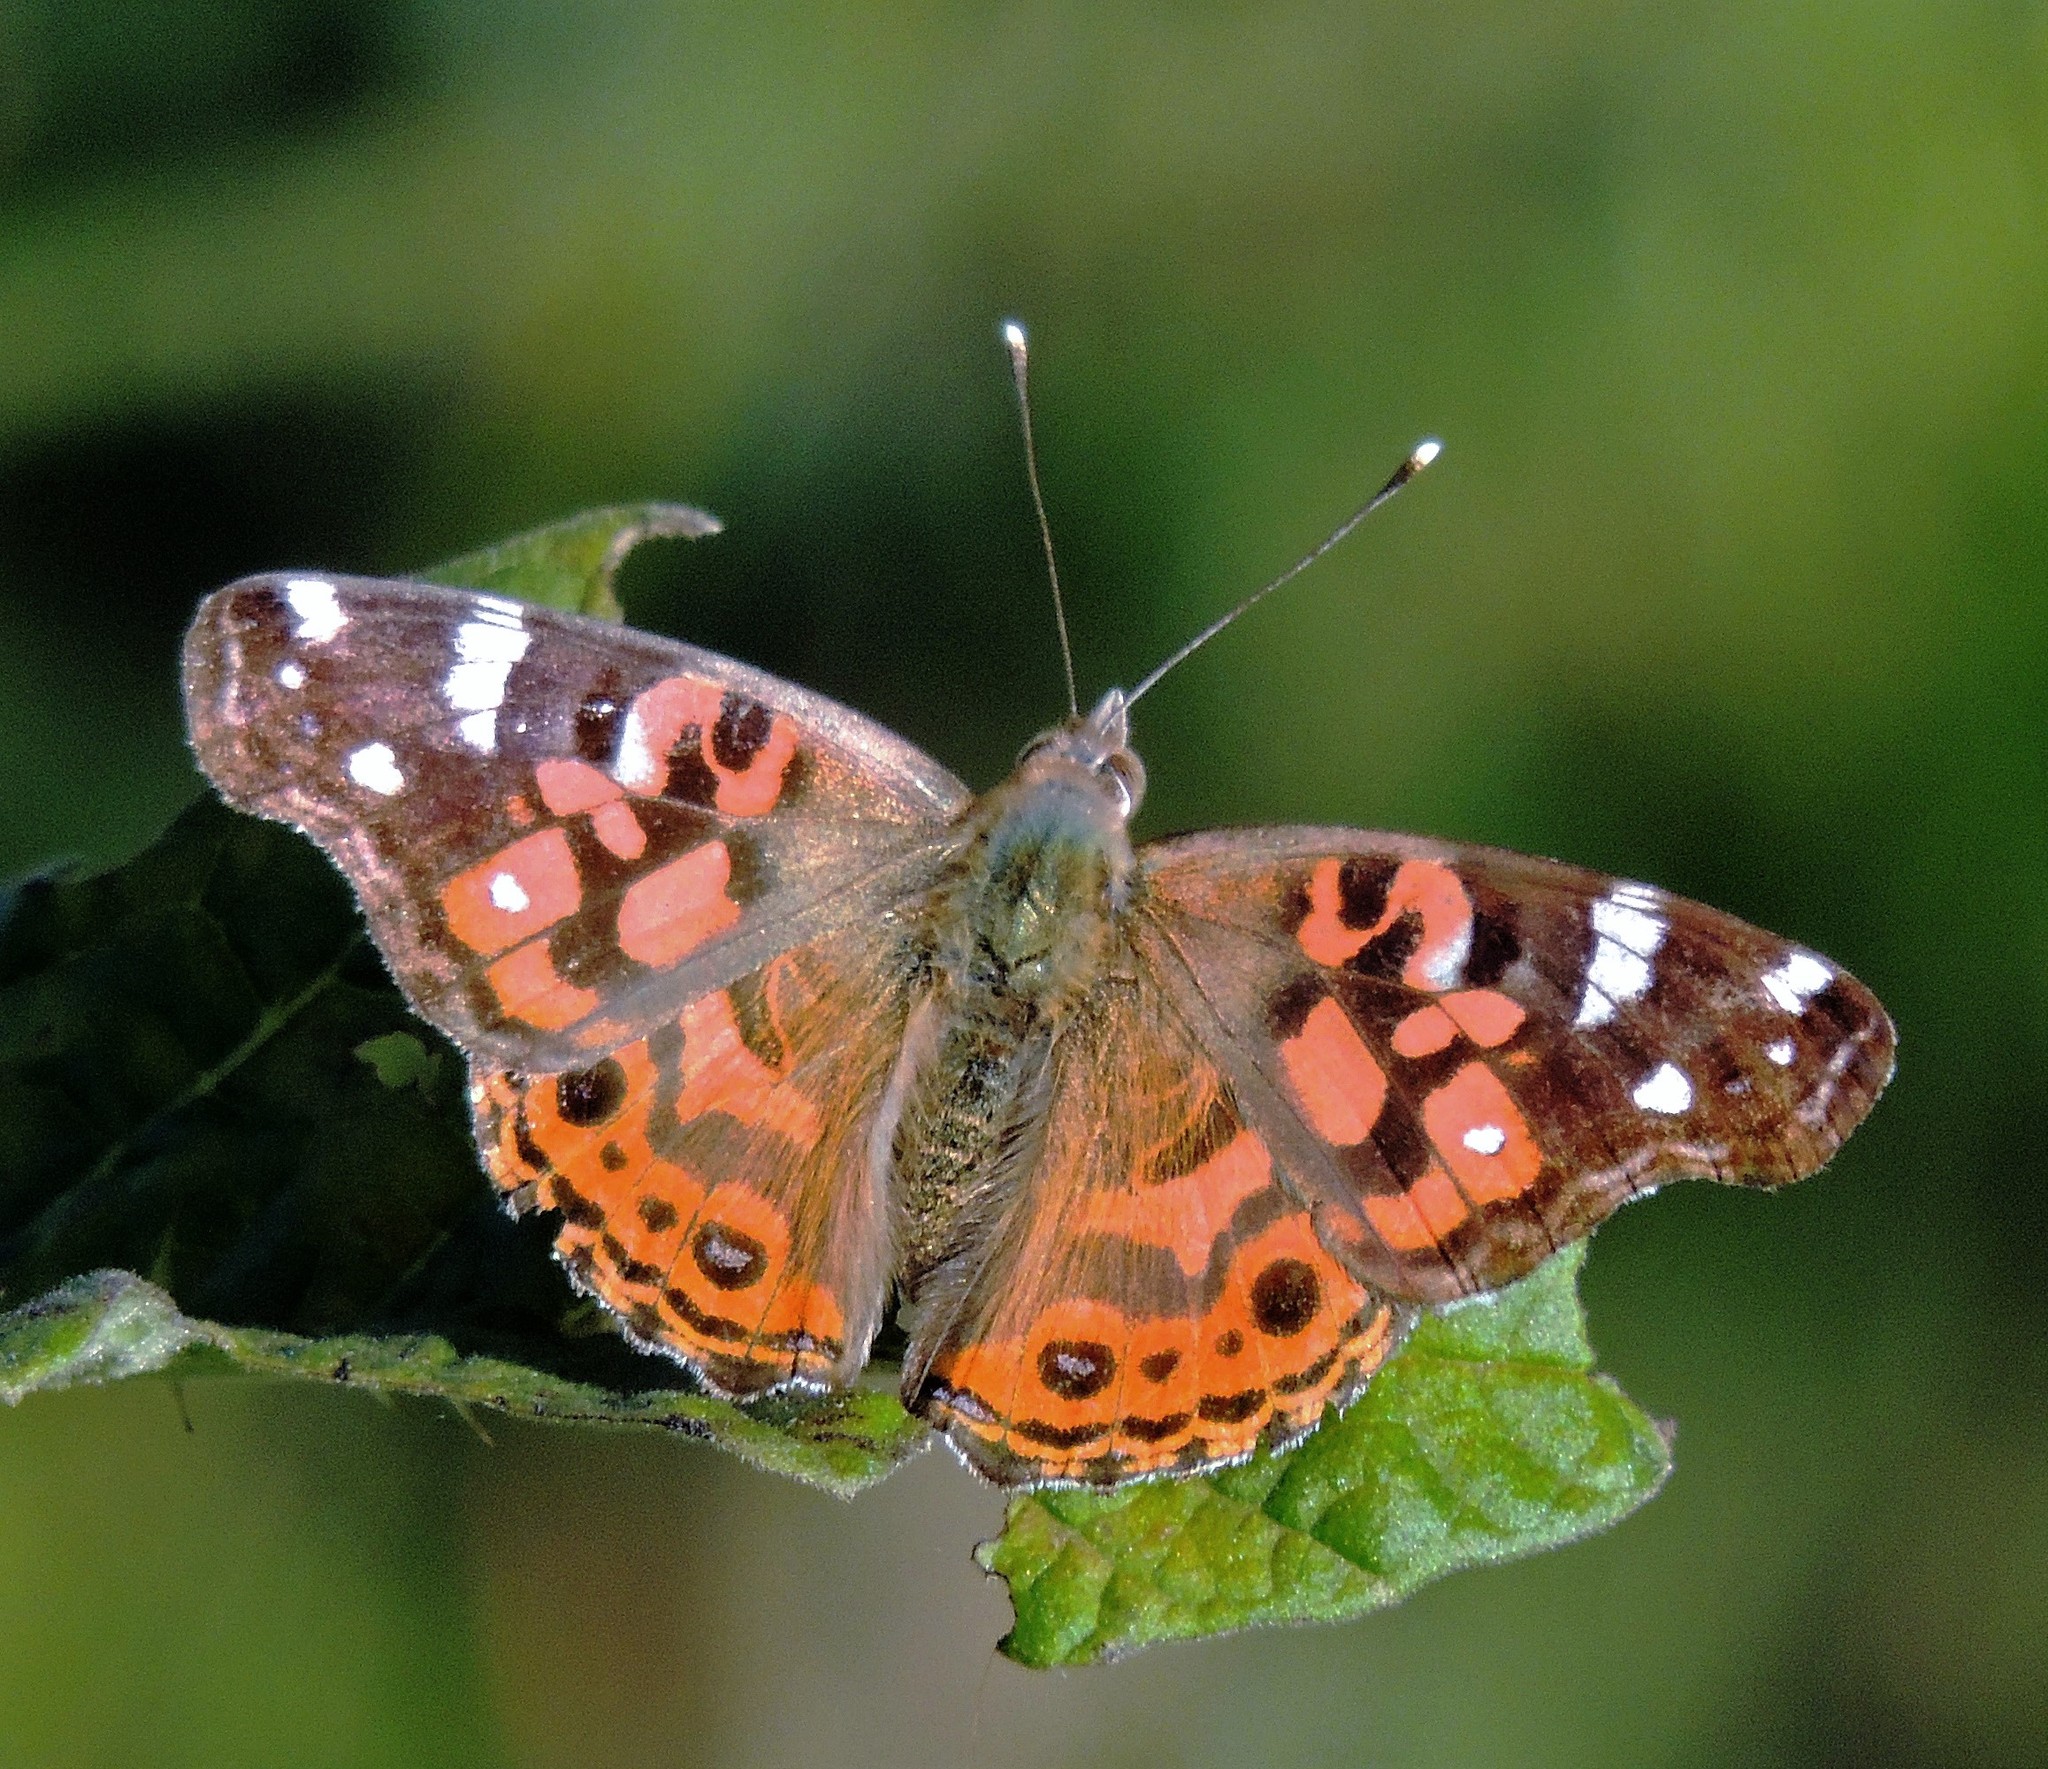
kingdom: Animalia
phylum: Arthropoda
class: Insecta
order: Lepidoptera
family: Nymphalidae
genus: Vanessa
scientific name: Vanessa braziliensis
